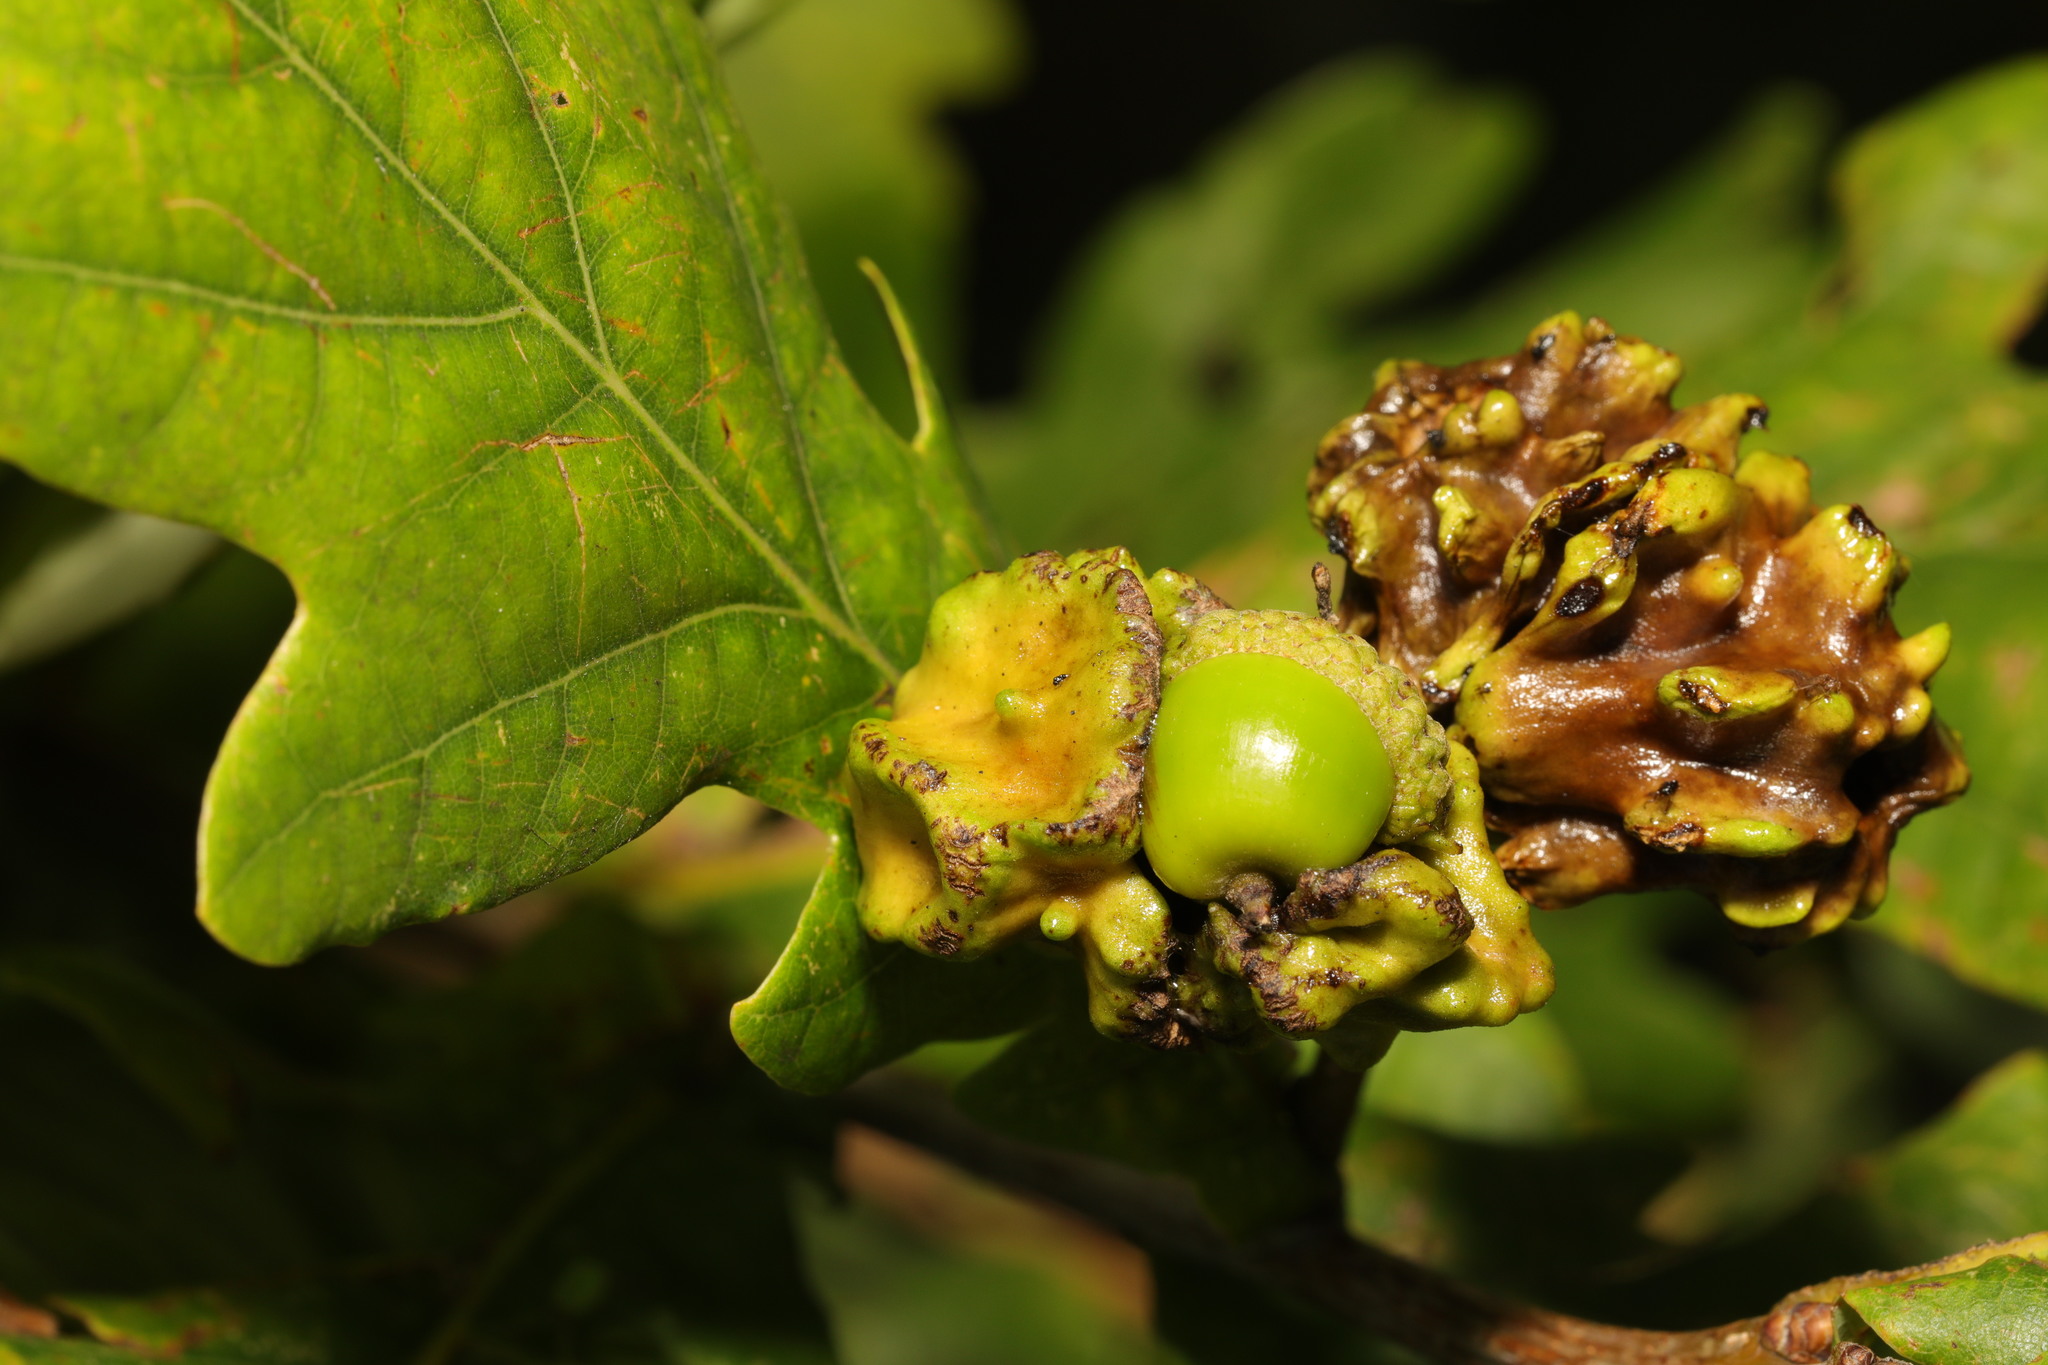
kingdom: Animalia
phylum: Arthropoda
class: Insecta
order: Hymenoptera
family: Cynipidae
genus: Andricus
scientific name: Andricus quercuscalicis
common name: Knopper gall
